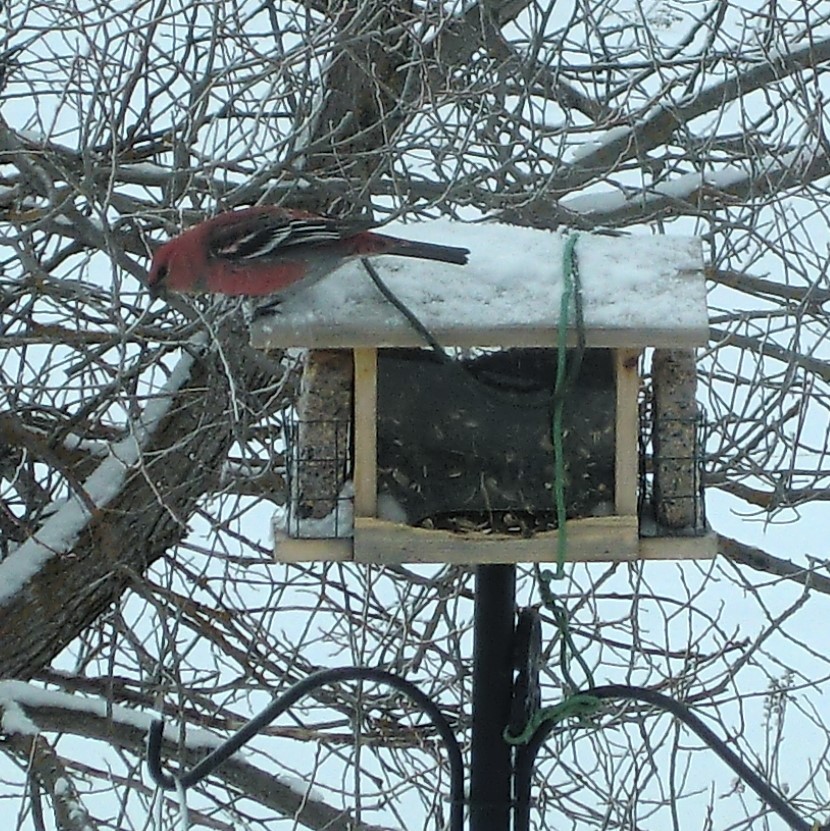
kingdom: Animalia
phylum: Chordata
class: Aves
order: Passeriformes
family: Fringillidae
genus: Pinicola
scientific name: Pinicola enucleator
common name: Pine grosbeak
